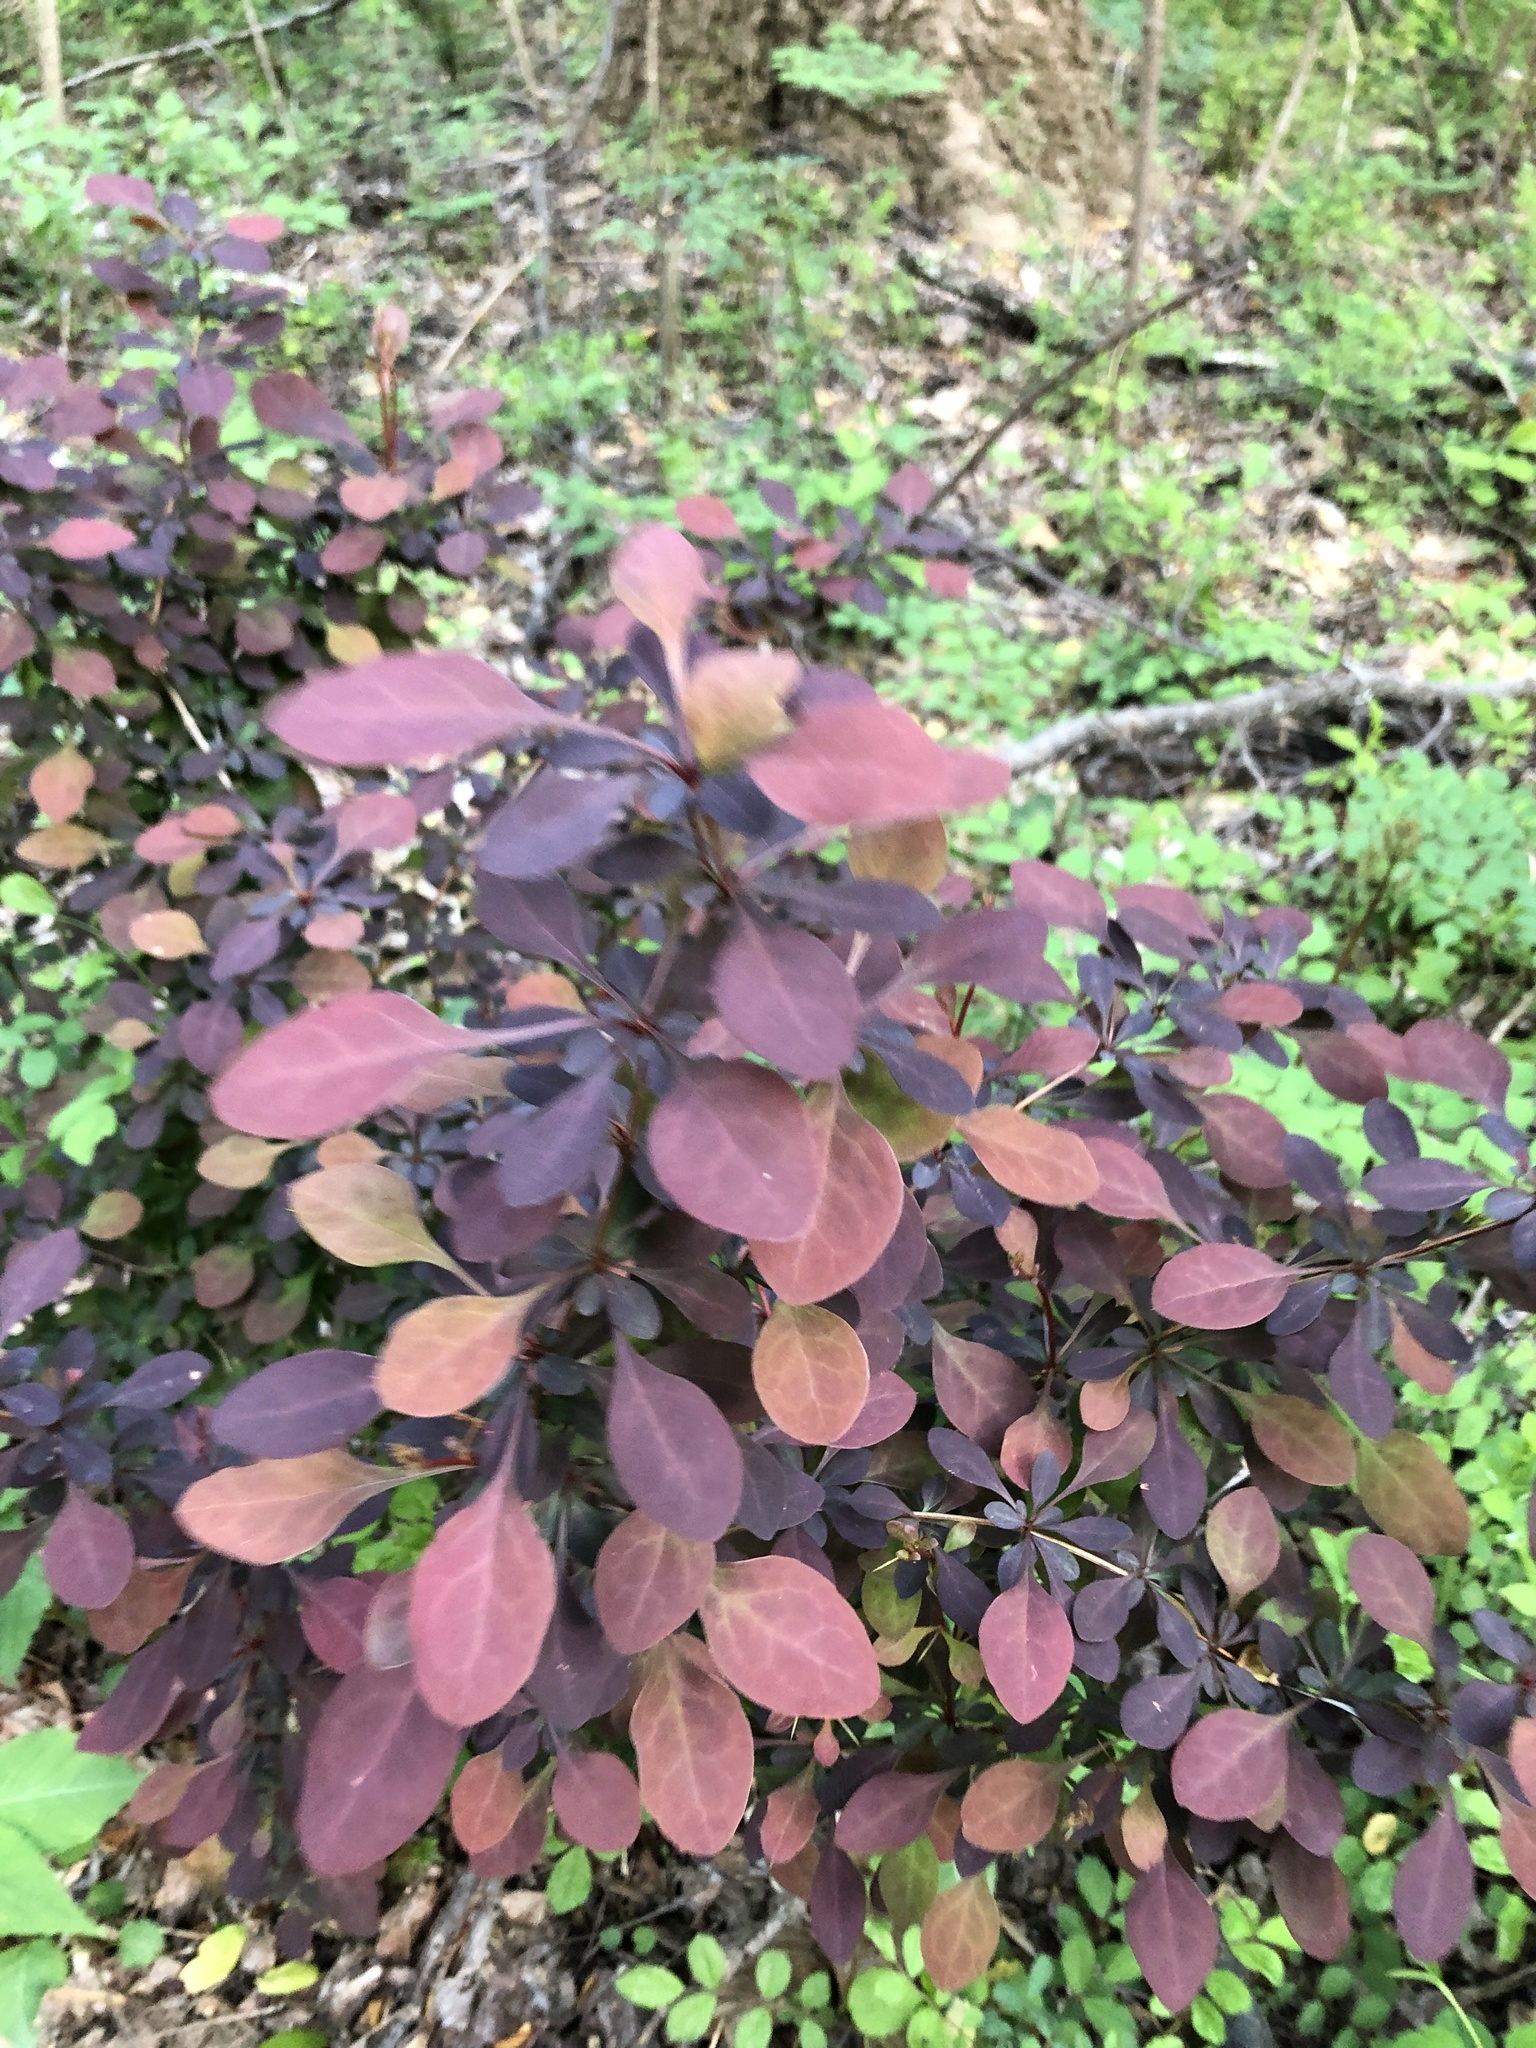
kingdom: Plantae
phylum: Tracheophyta
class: Magnoliopsida
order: Ranunculales
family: Berberidaceae
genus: Berberis
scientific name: Berberis thunbergii
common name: Japanese barberry
